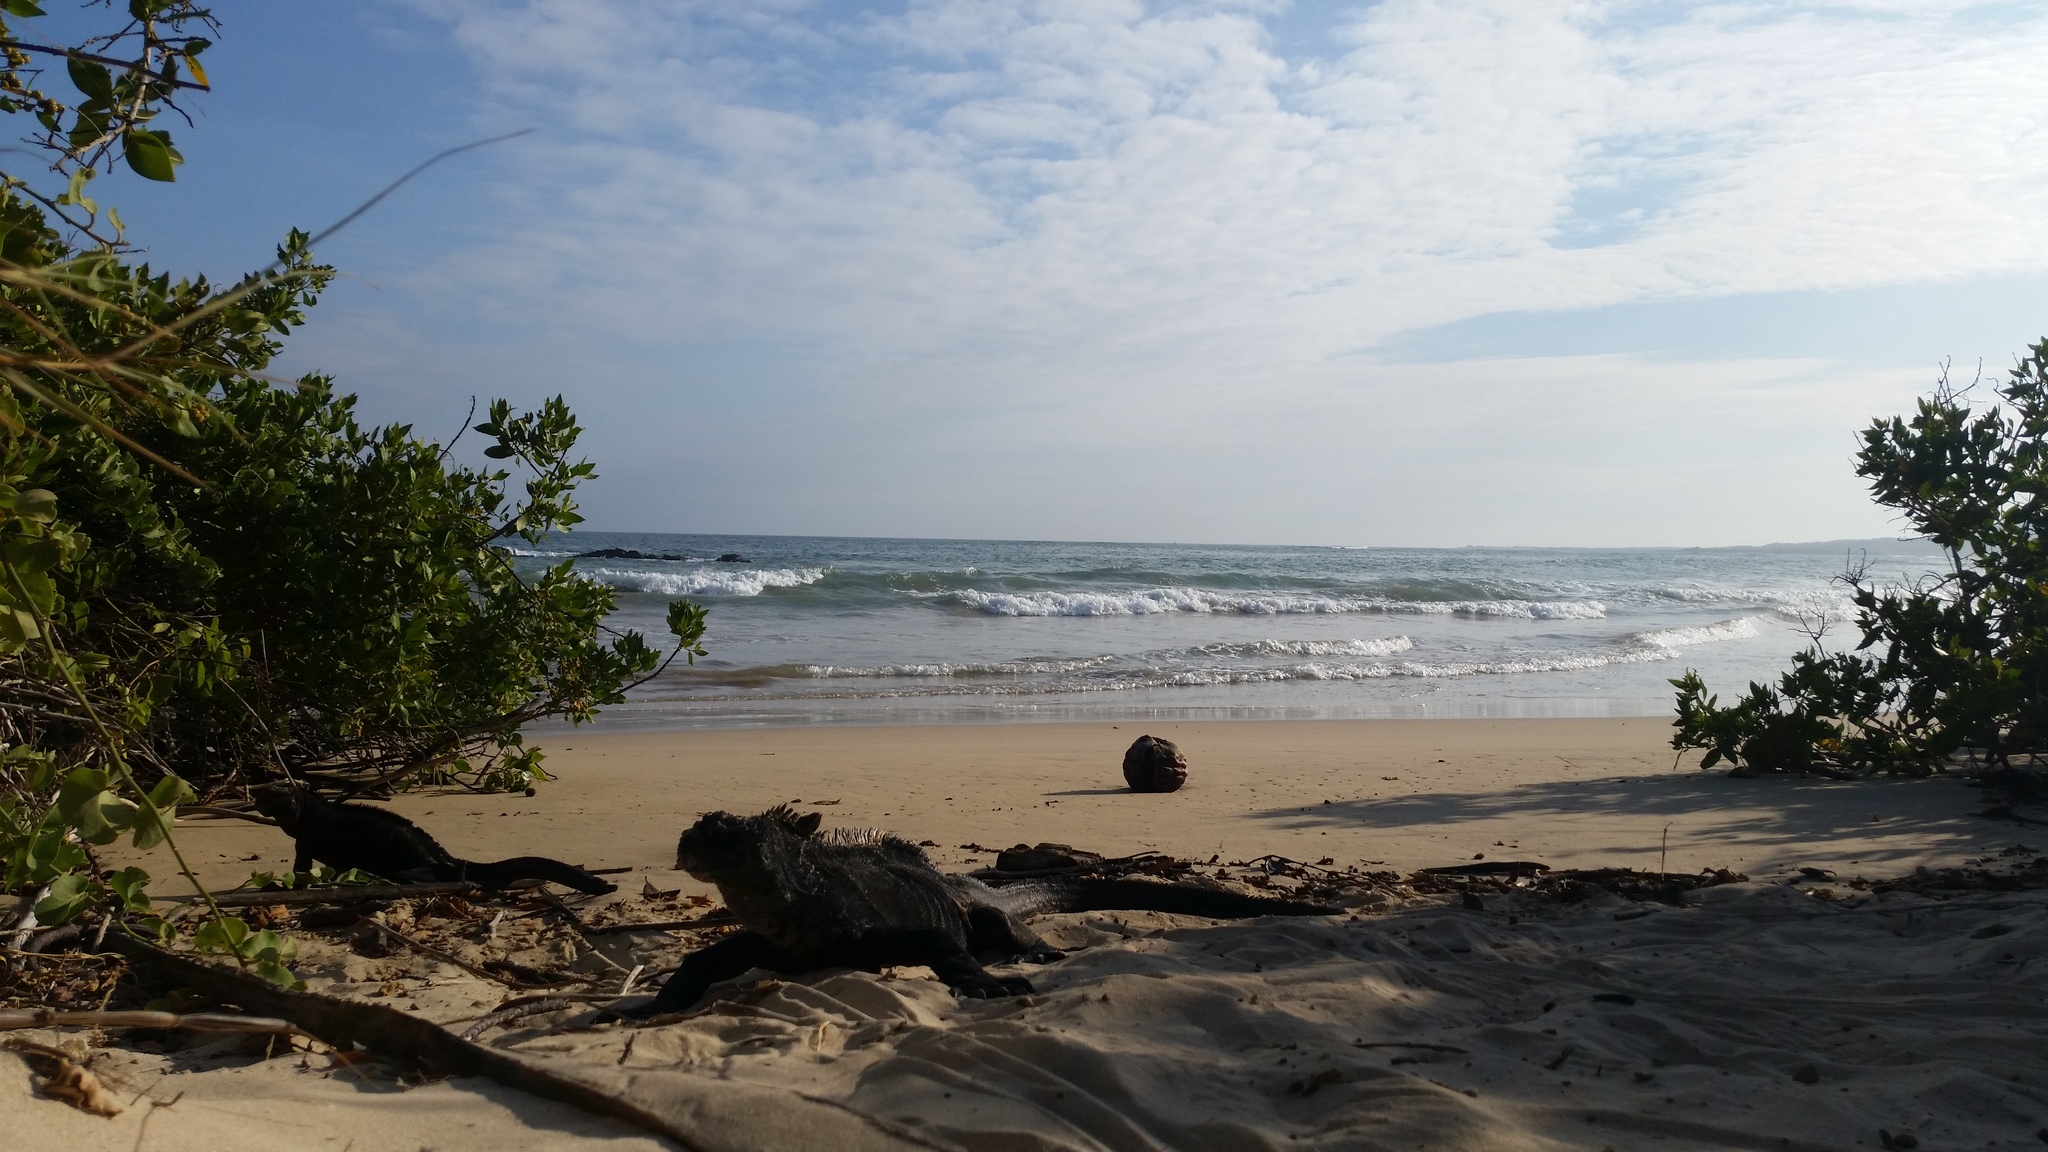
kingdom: Animalia
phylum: Chordata
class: Squamata
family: Iguanidae
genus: Amblyrhynchus
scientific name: Amblyrhynchus cristatus
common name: Marine iguana
